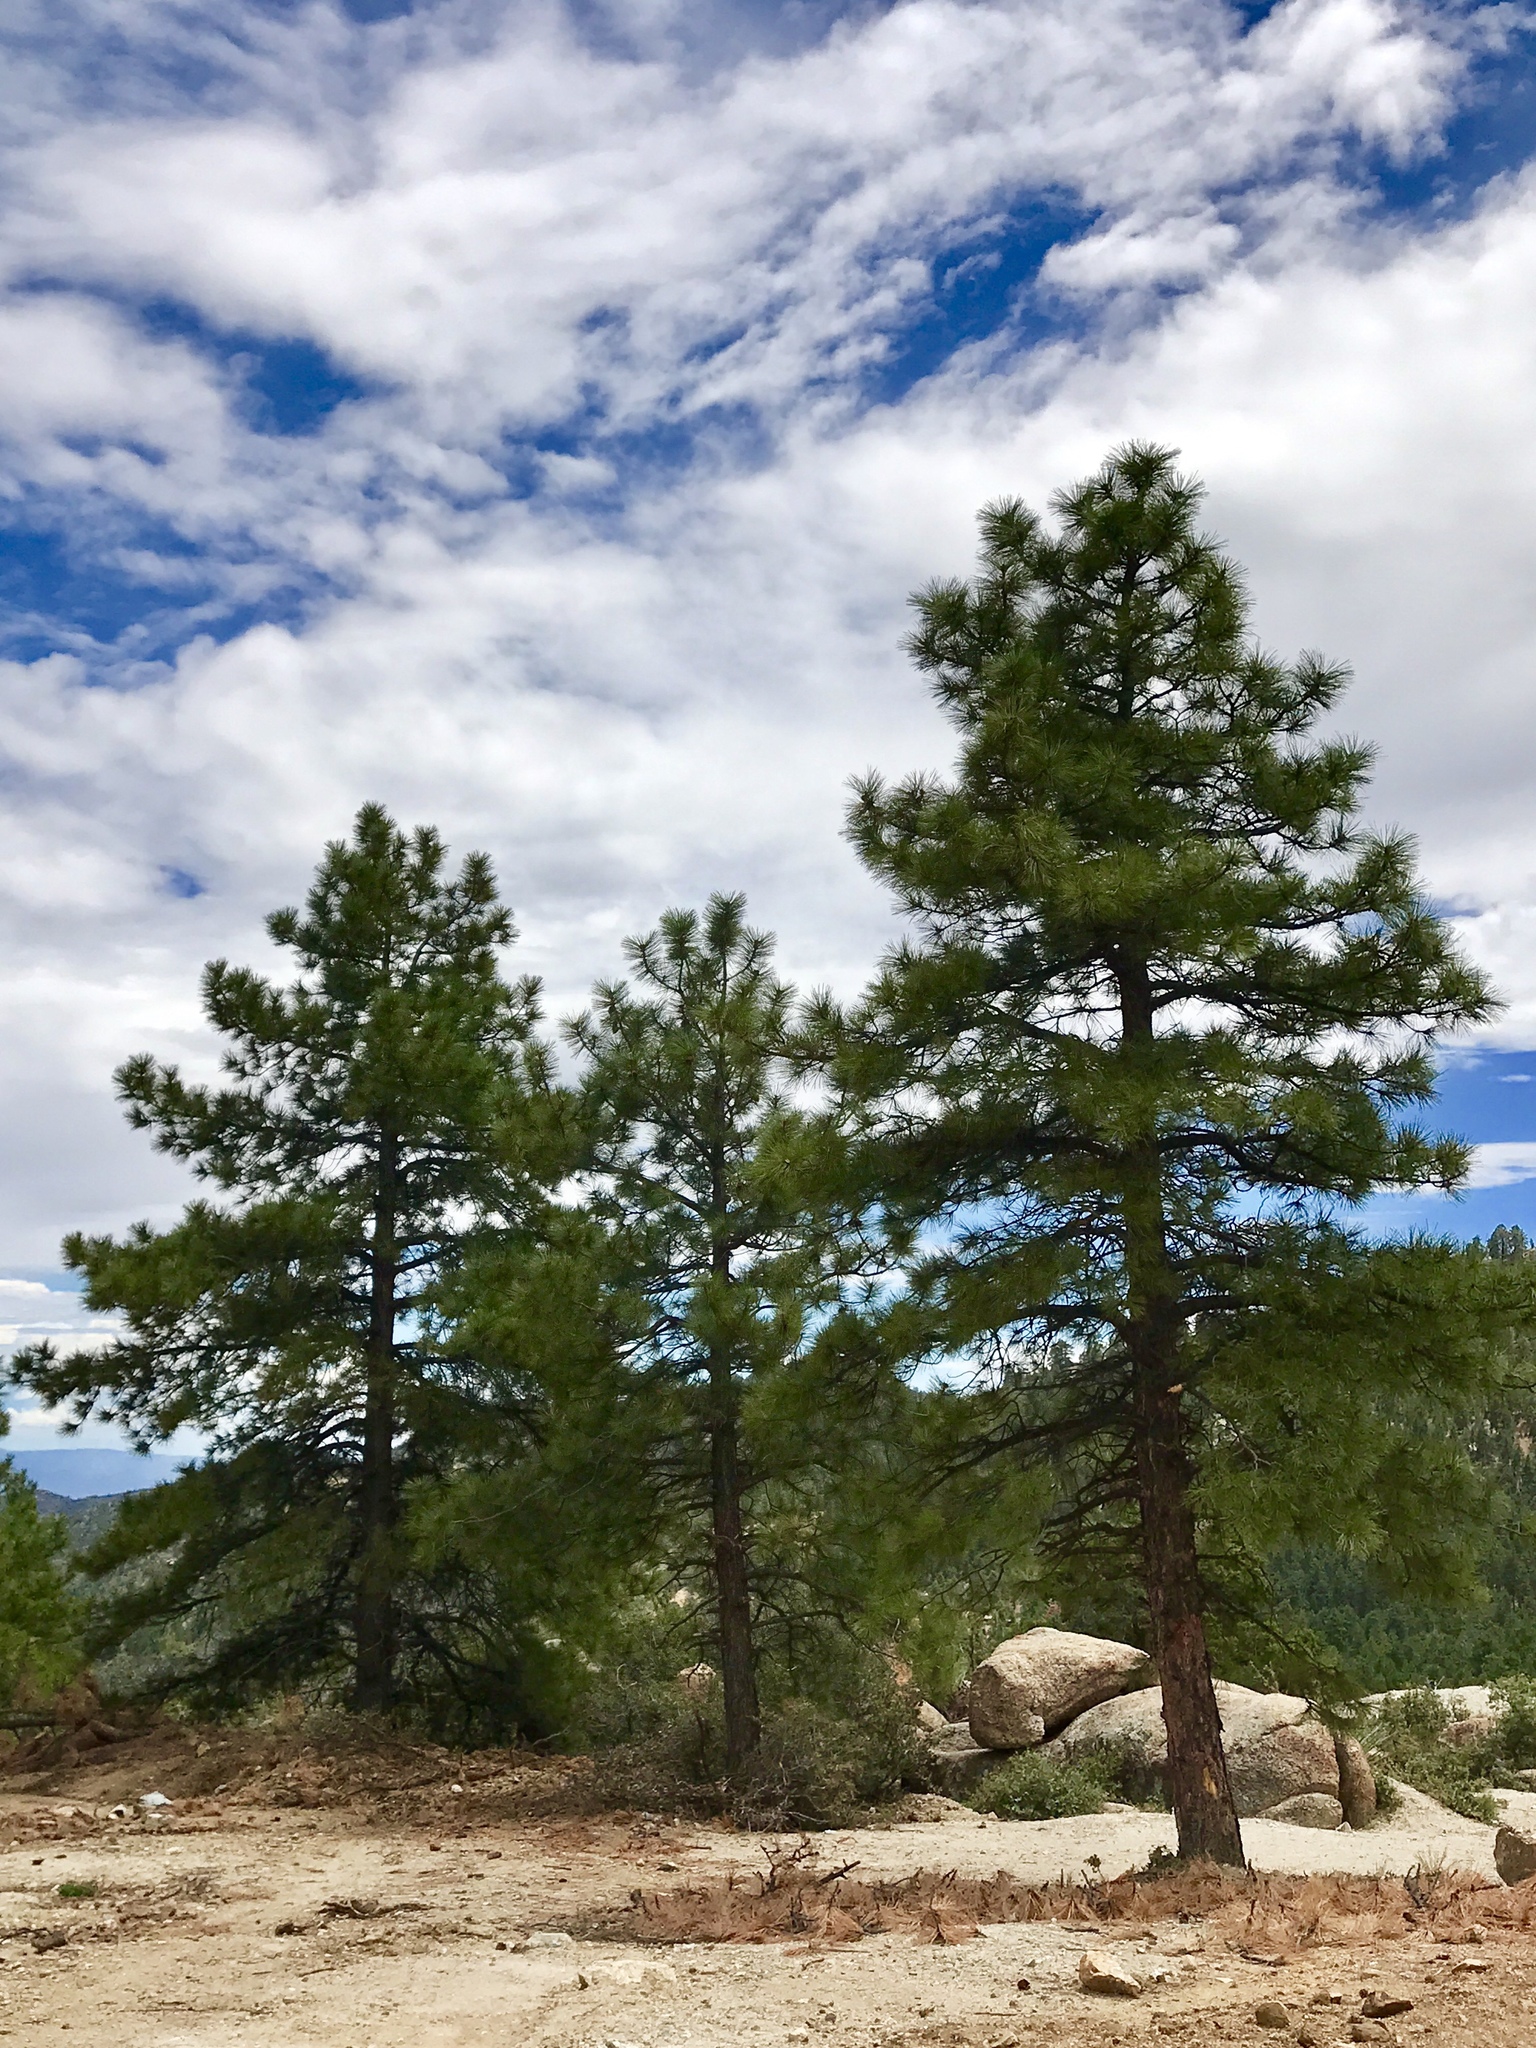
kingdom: Plantae
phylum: Tracheophyta
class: Pinopsida
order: Pinales
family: Pinaceae
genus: Pinus
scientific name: Pinus ponderosa
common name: Western yellow-pine
